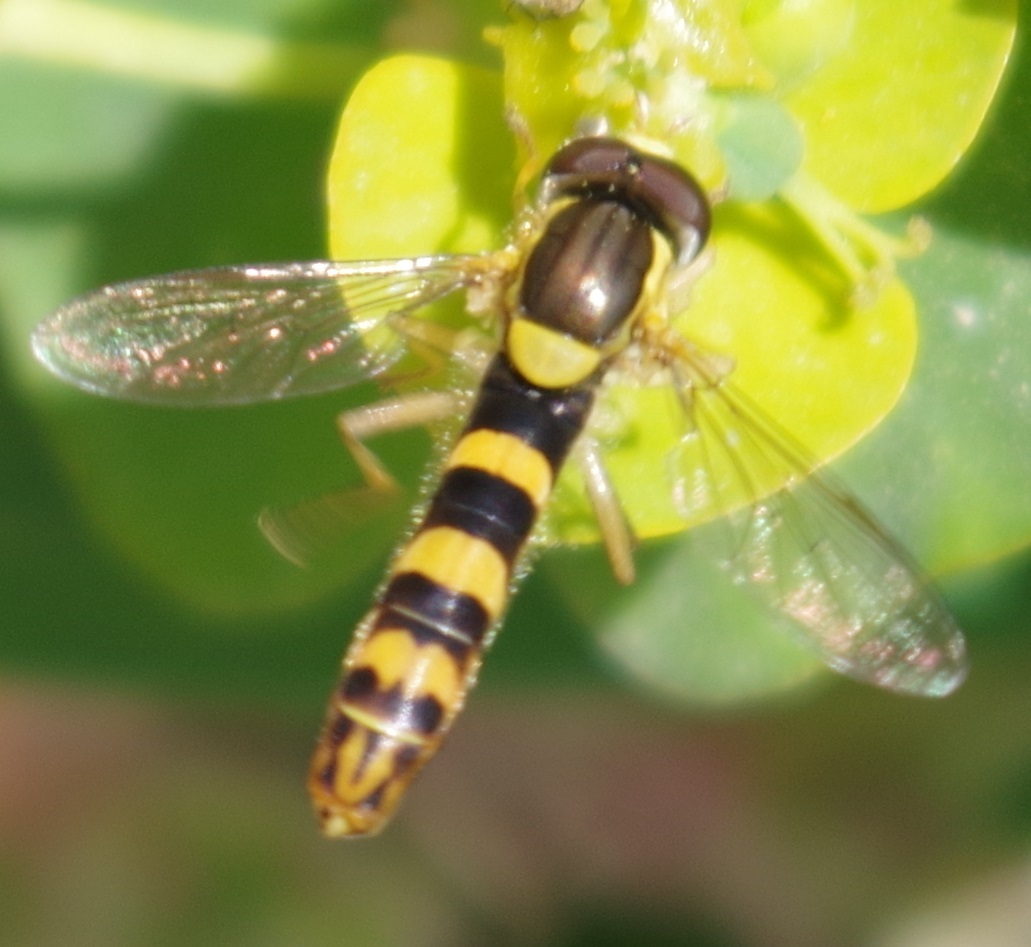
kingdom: Animalia
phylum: Arthropoda
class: Insecta
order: Diptera
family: Syrphidae
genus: Sphaerophoria
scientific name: Sphaerophoria scripta
